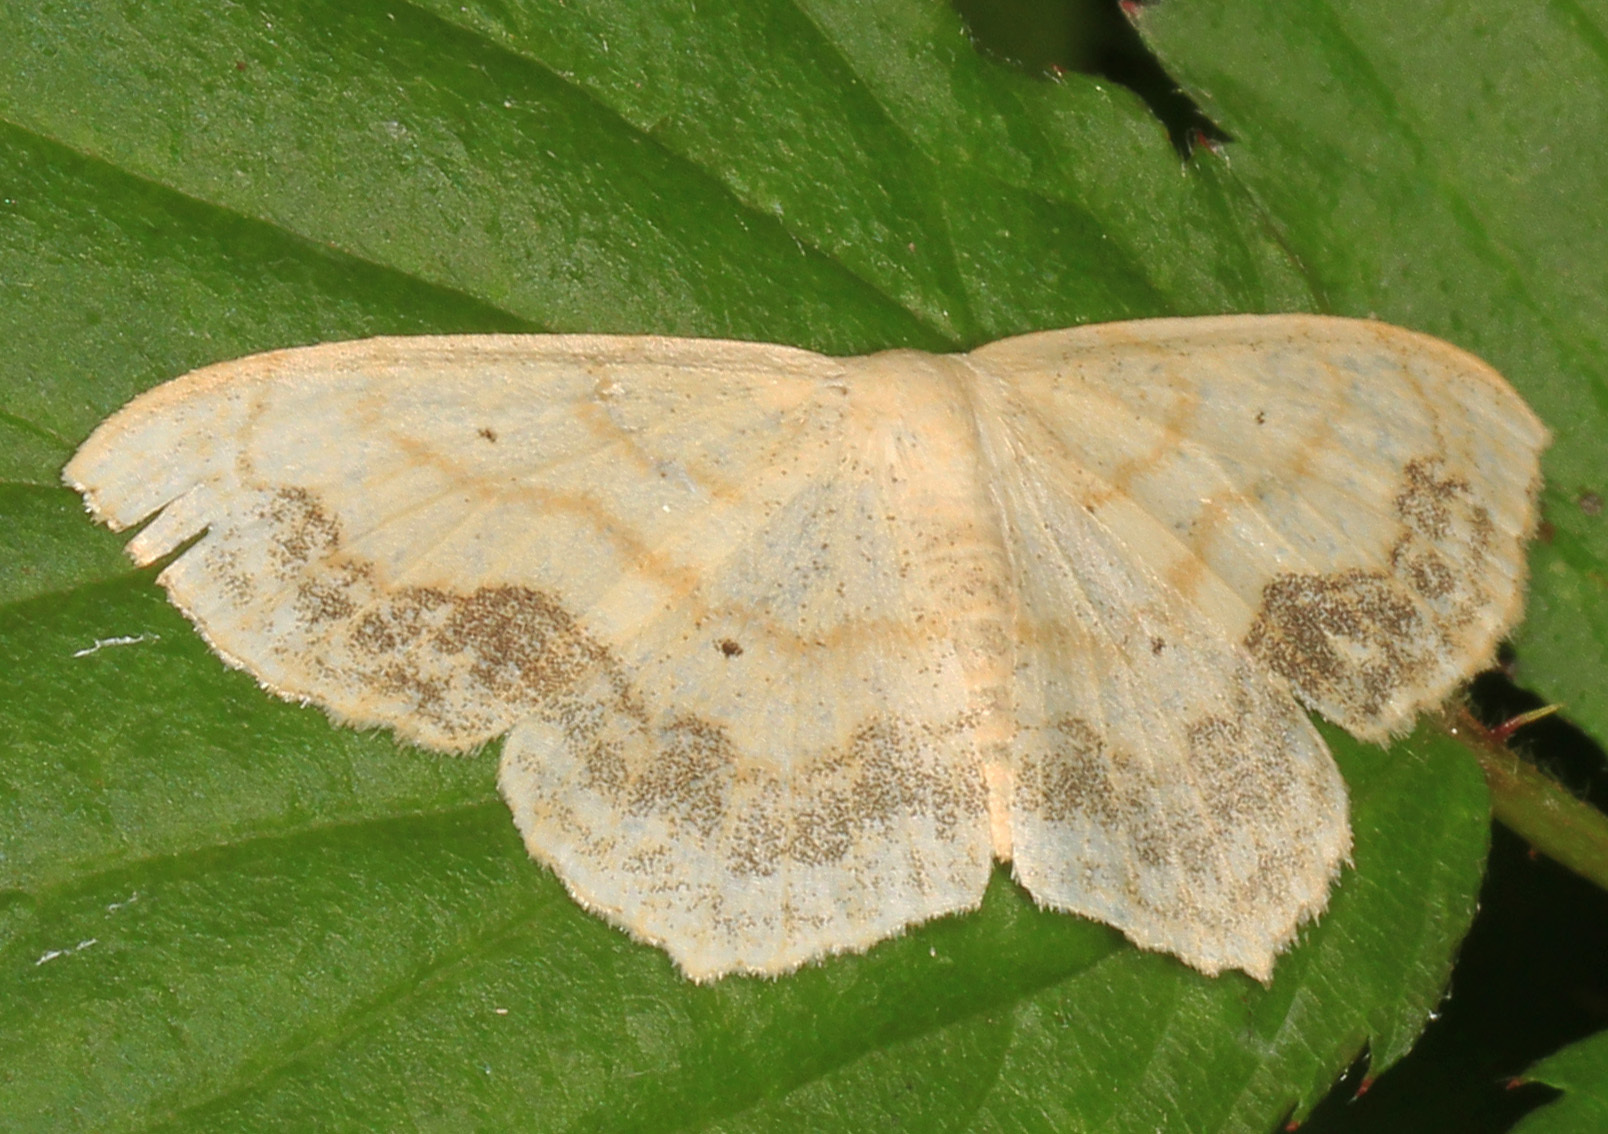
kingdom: Animalia
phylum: Arthropoda
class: Insecta
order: Lepidoptera
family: Geometridae
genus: Scopula
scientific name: Scopula limboundata
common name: Large lace border
